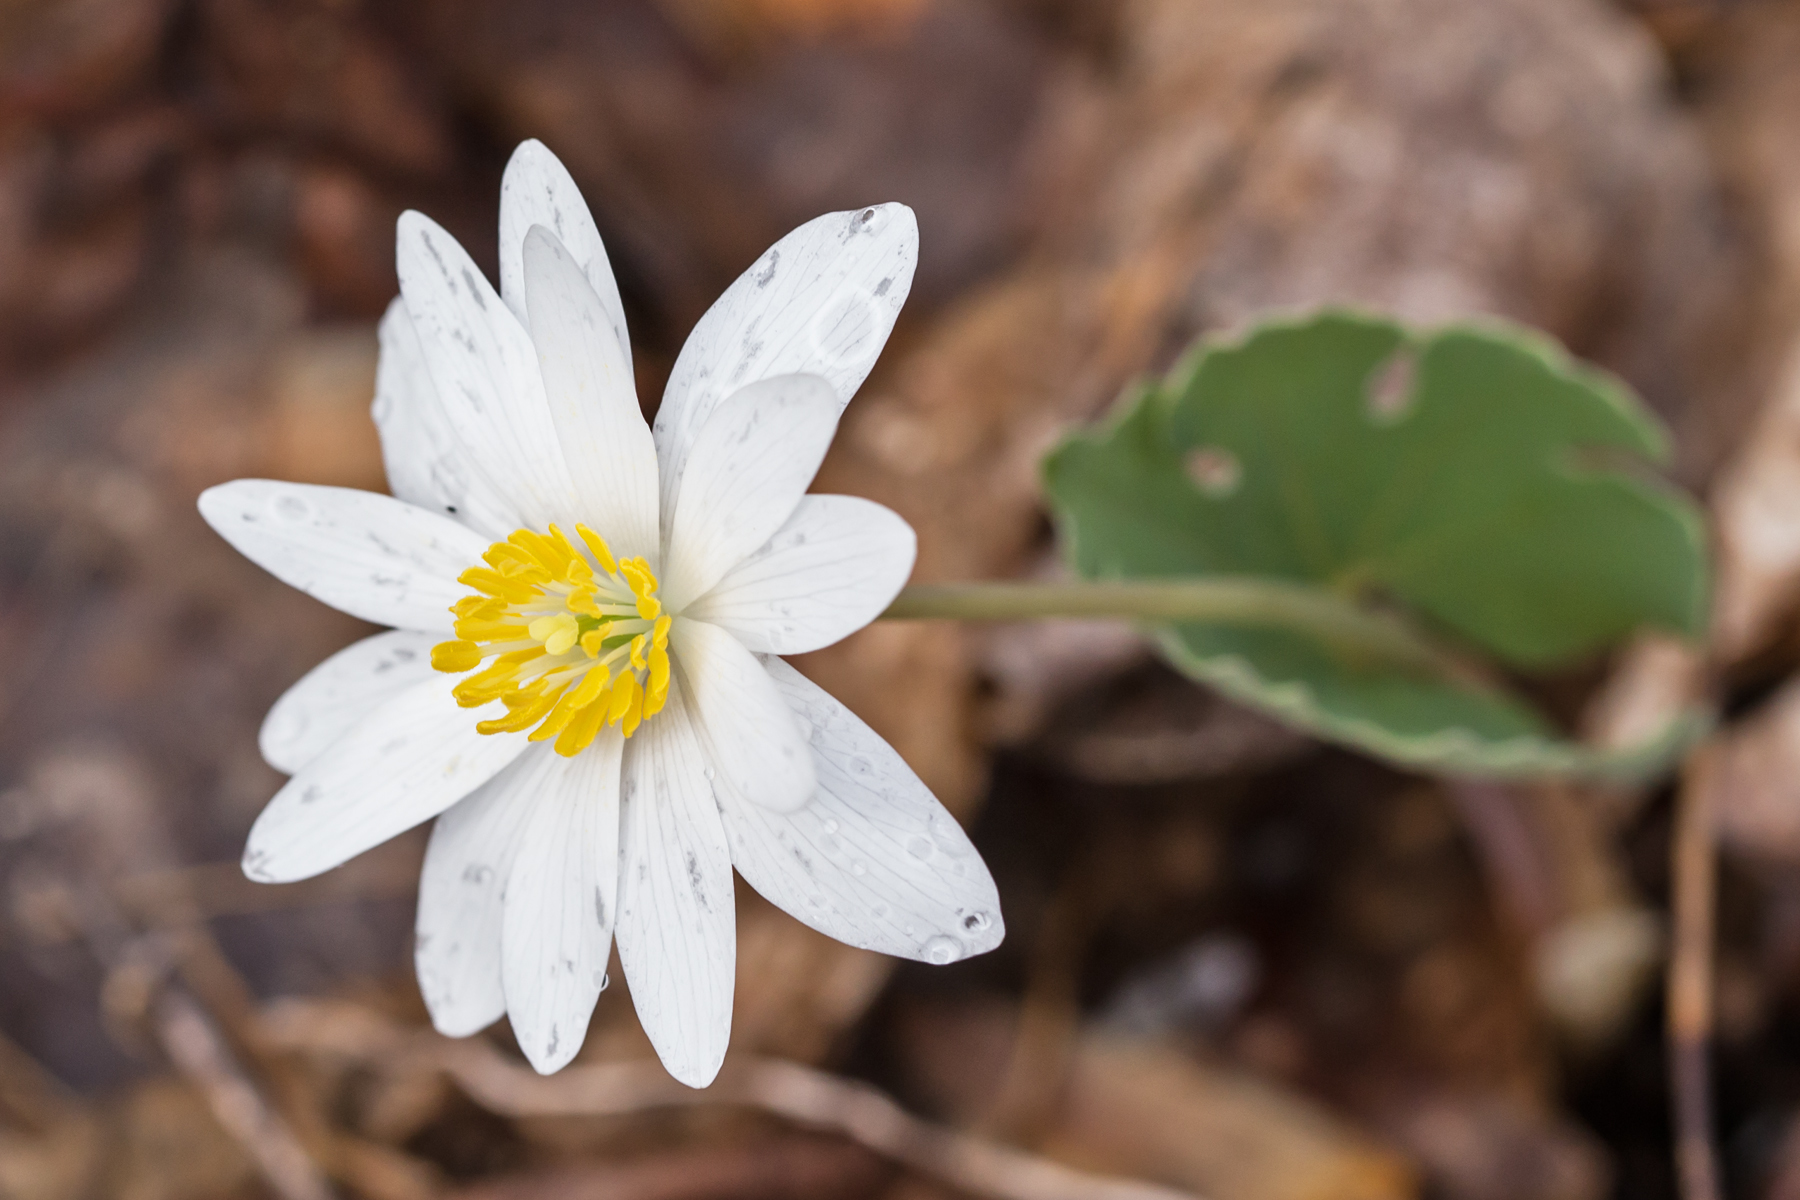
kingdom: Plantae
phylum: Tracheophyta
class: Magnoliopsida
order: Ranunculales
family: Papaveraceae
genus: Sanguinaria
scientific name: Sanguinaria canadensis
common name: Bloodroot
